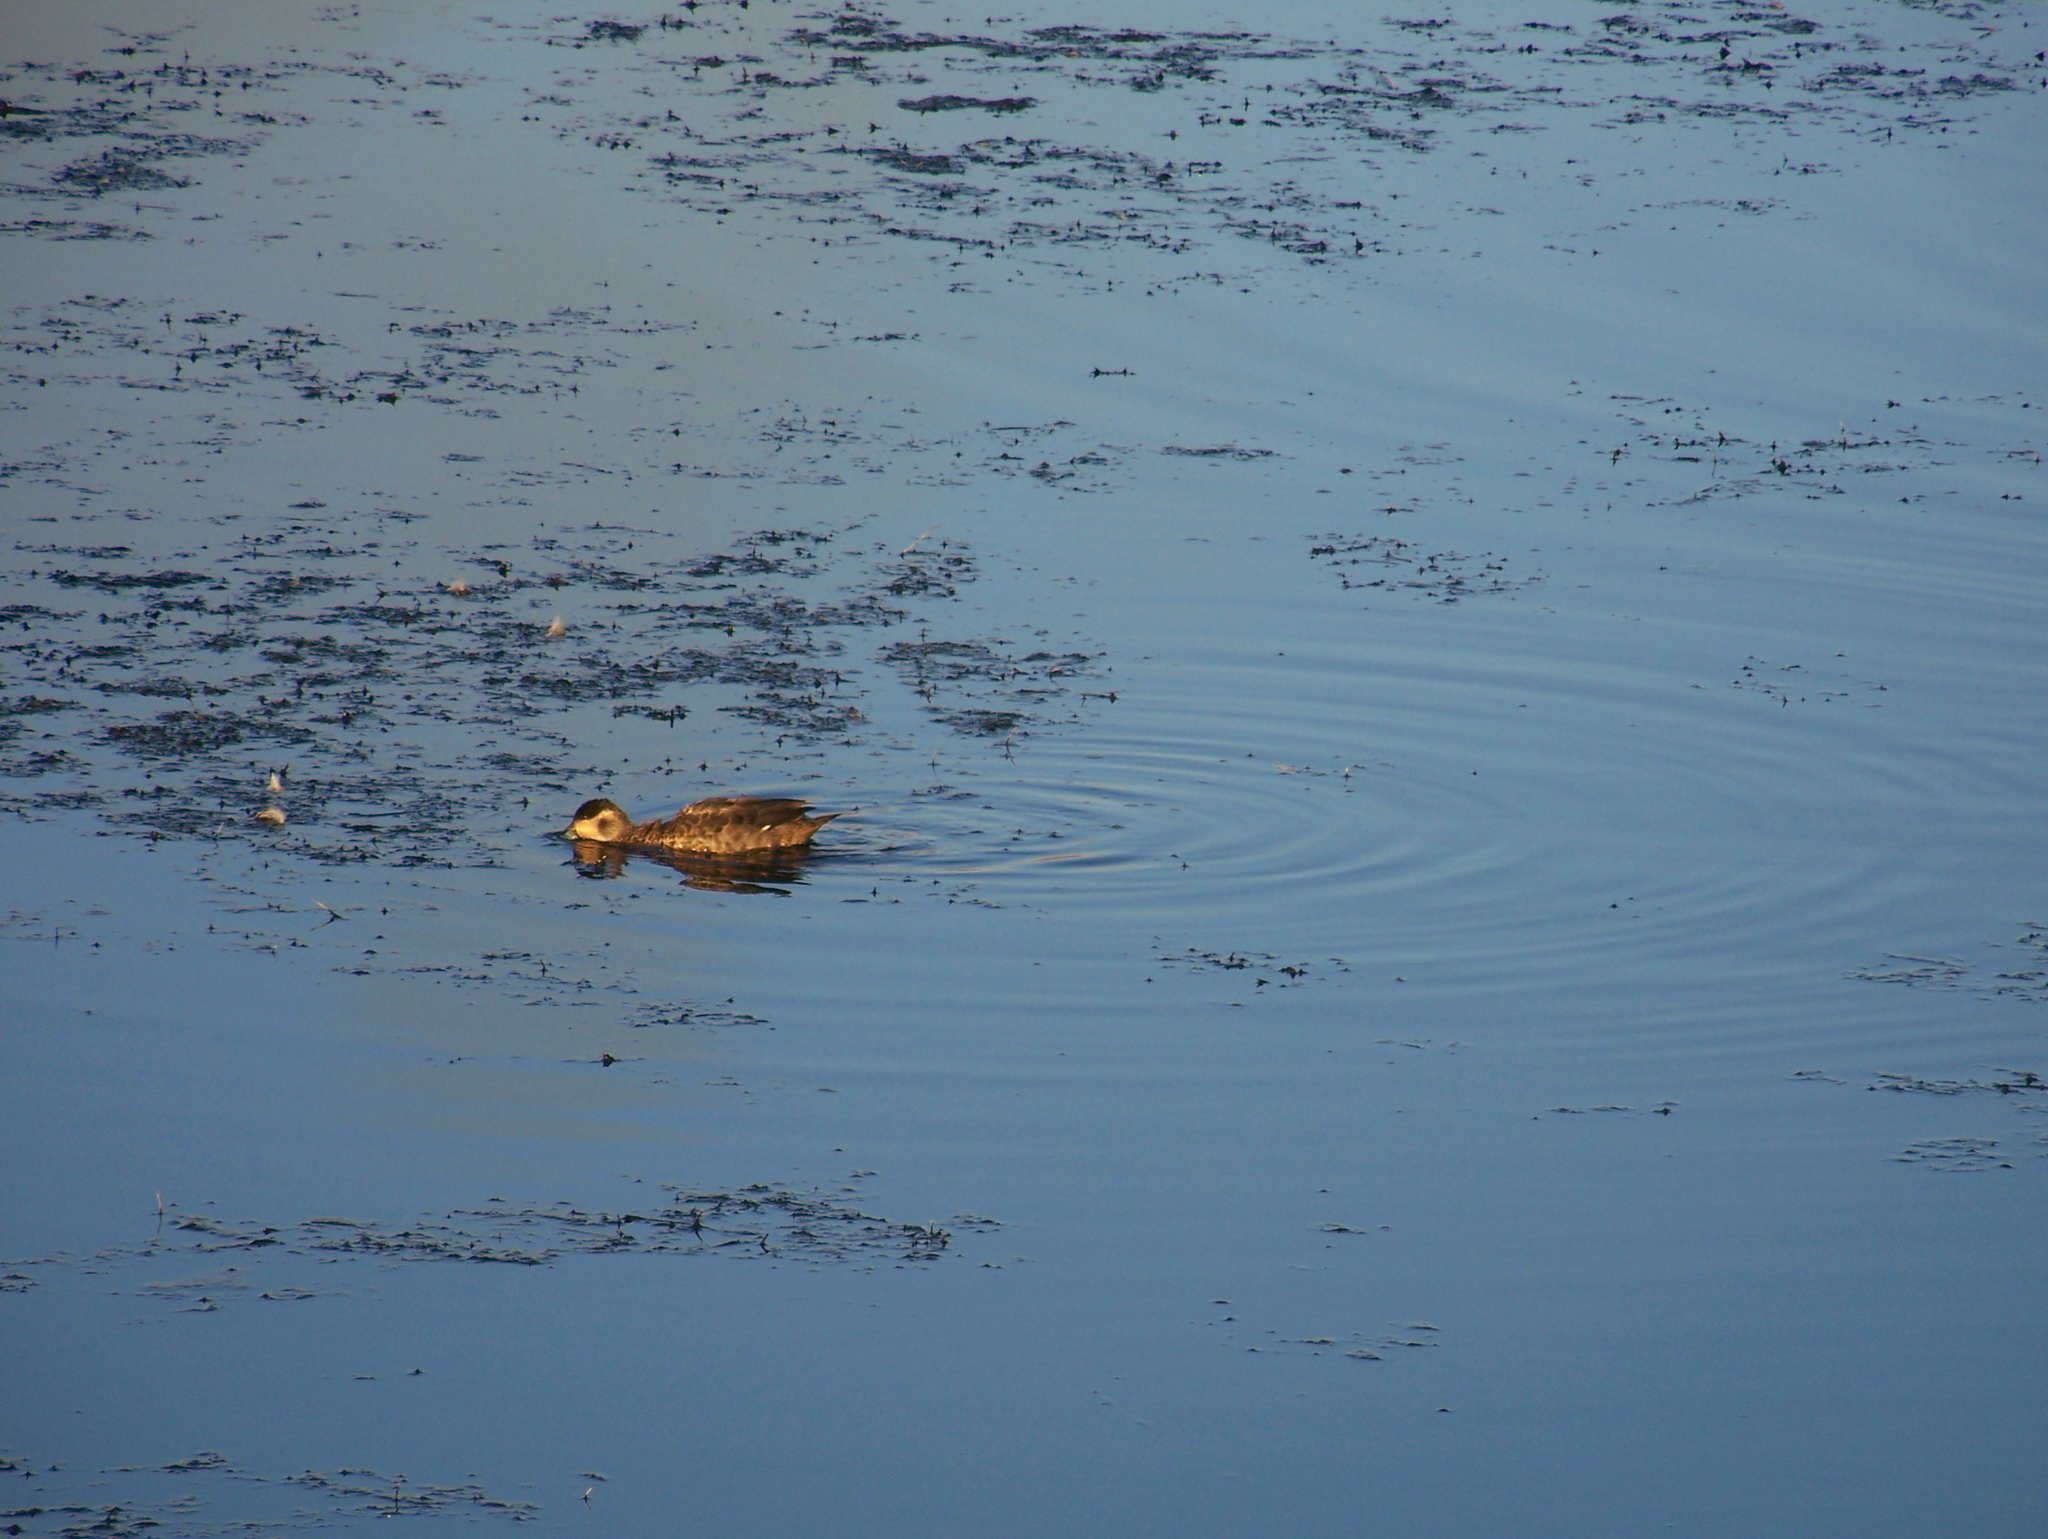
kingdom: Animalia
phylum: Chordata
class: Aves
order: Anseriformes
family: Anatidae
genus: Spatula
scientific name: Spatula hottentota
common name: Blue-billed teal
